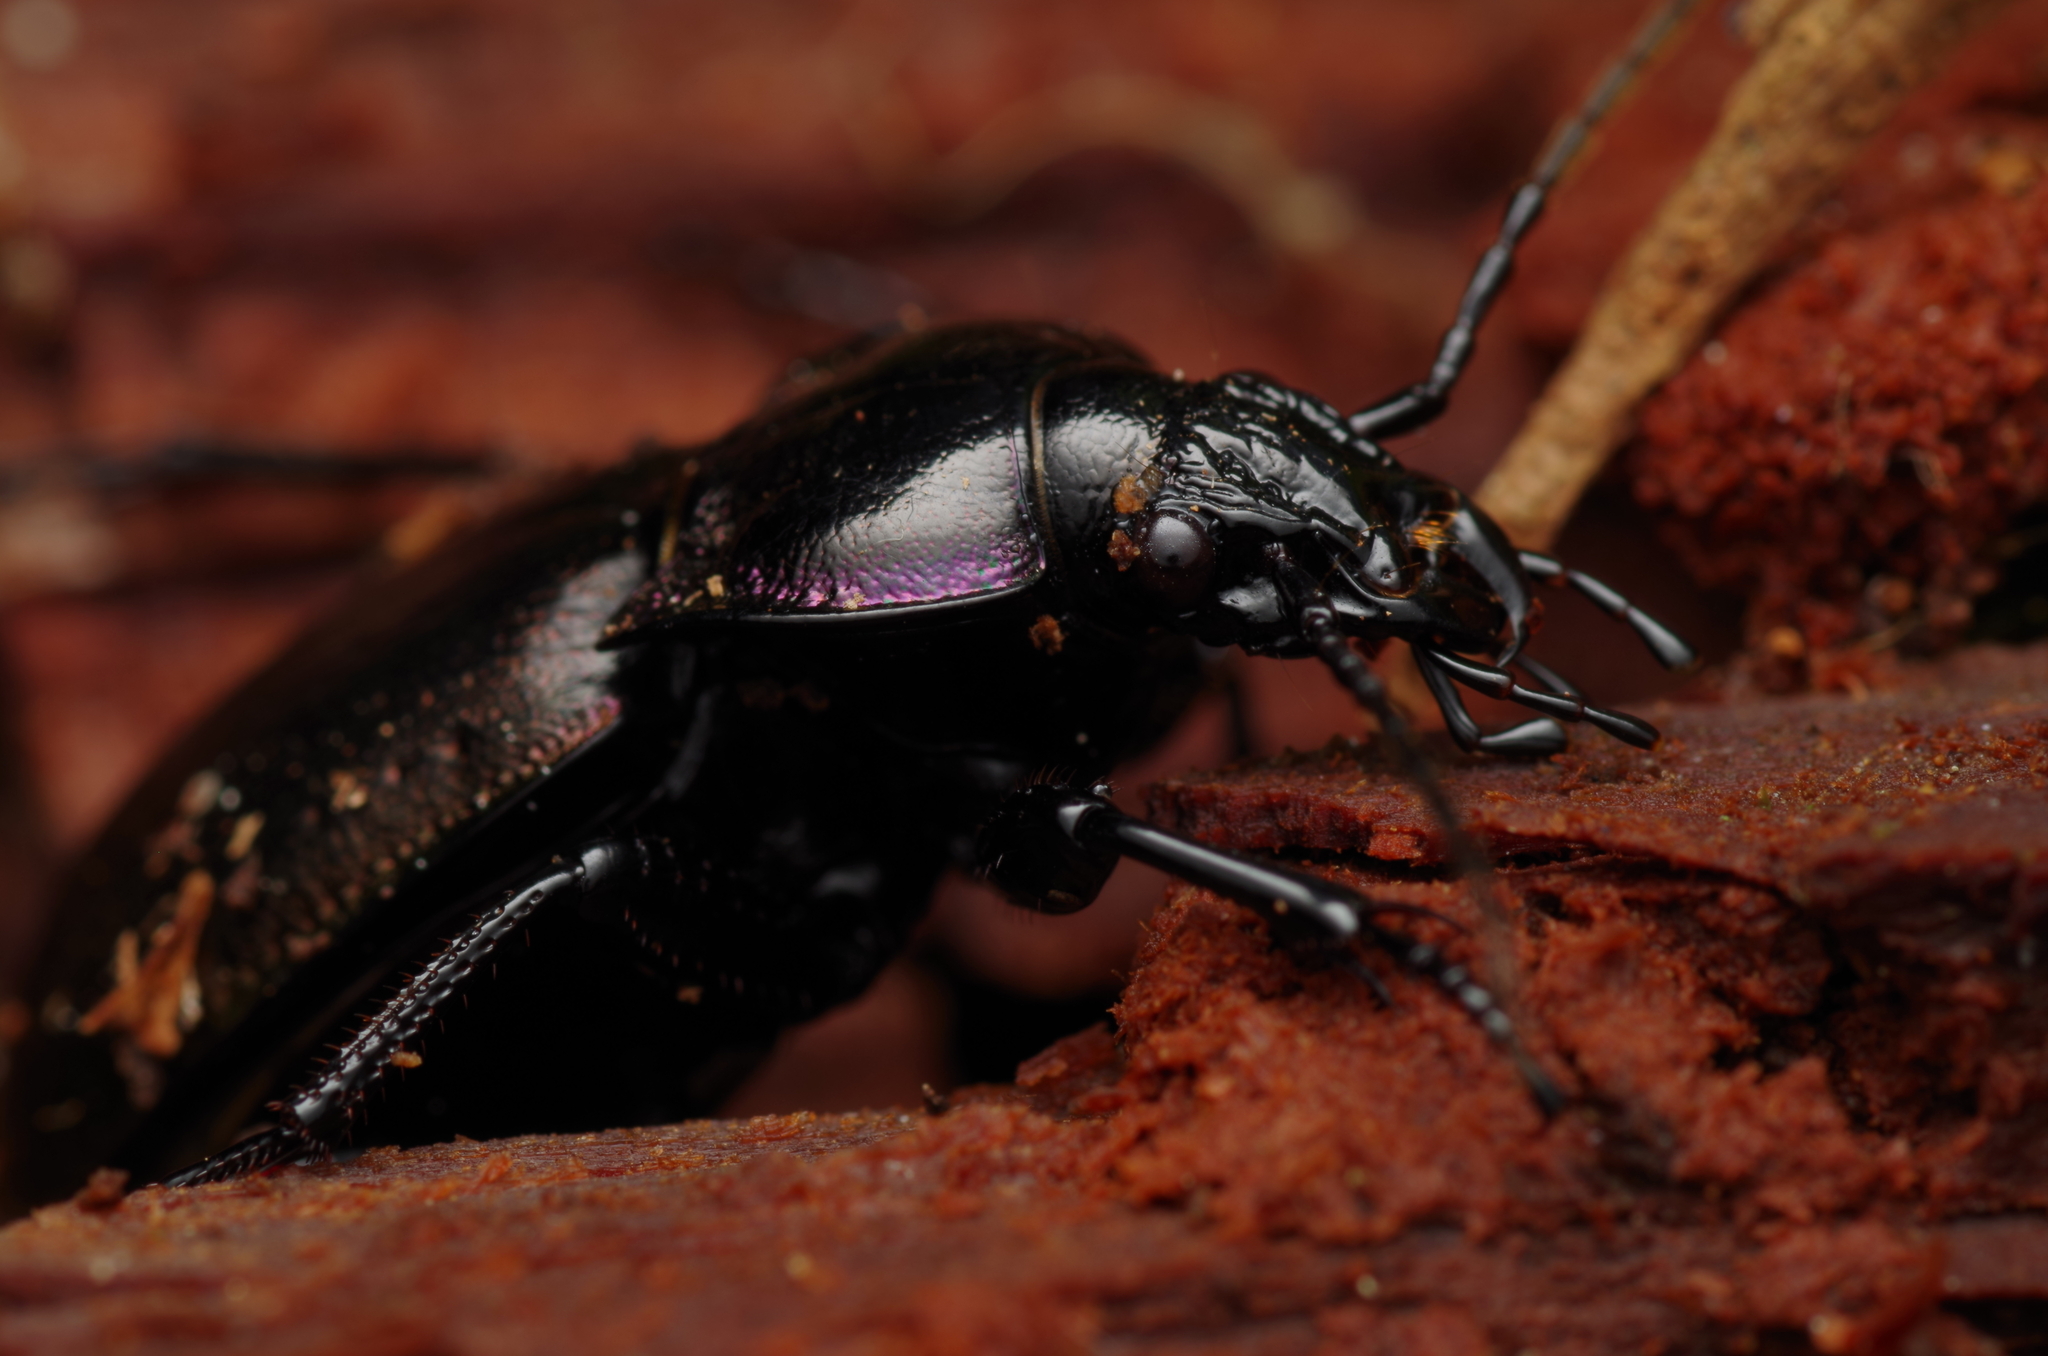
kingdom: Animalia
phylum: Arthropoda
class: Insecta
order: Coleoptera
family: Carabidae
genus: Carabus
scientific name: Carabus nemoralis
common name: European ground beetle
